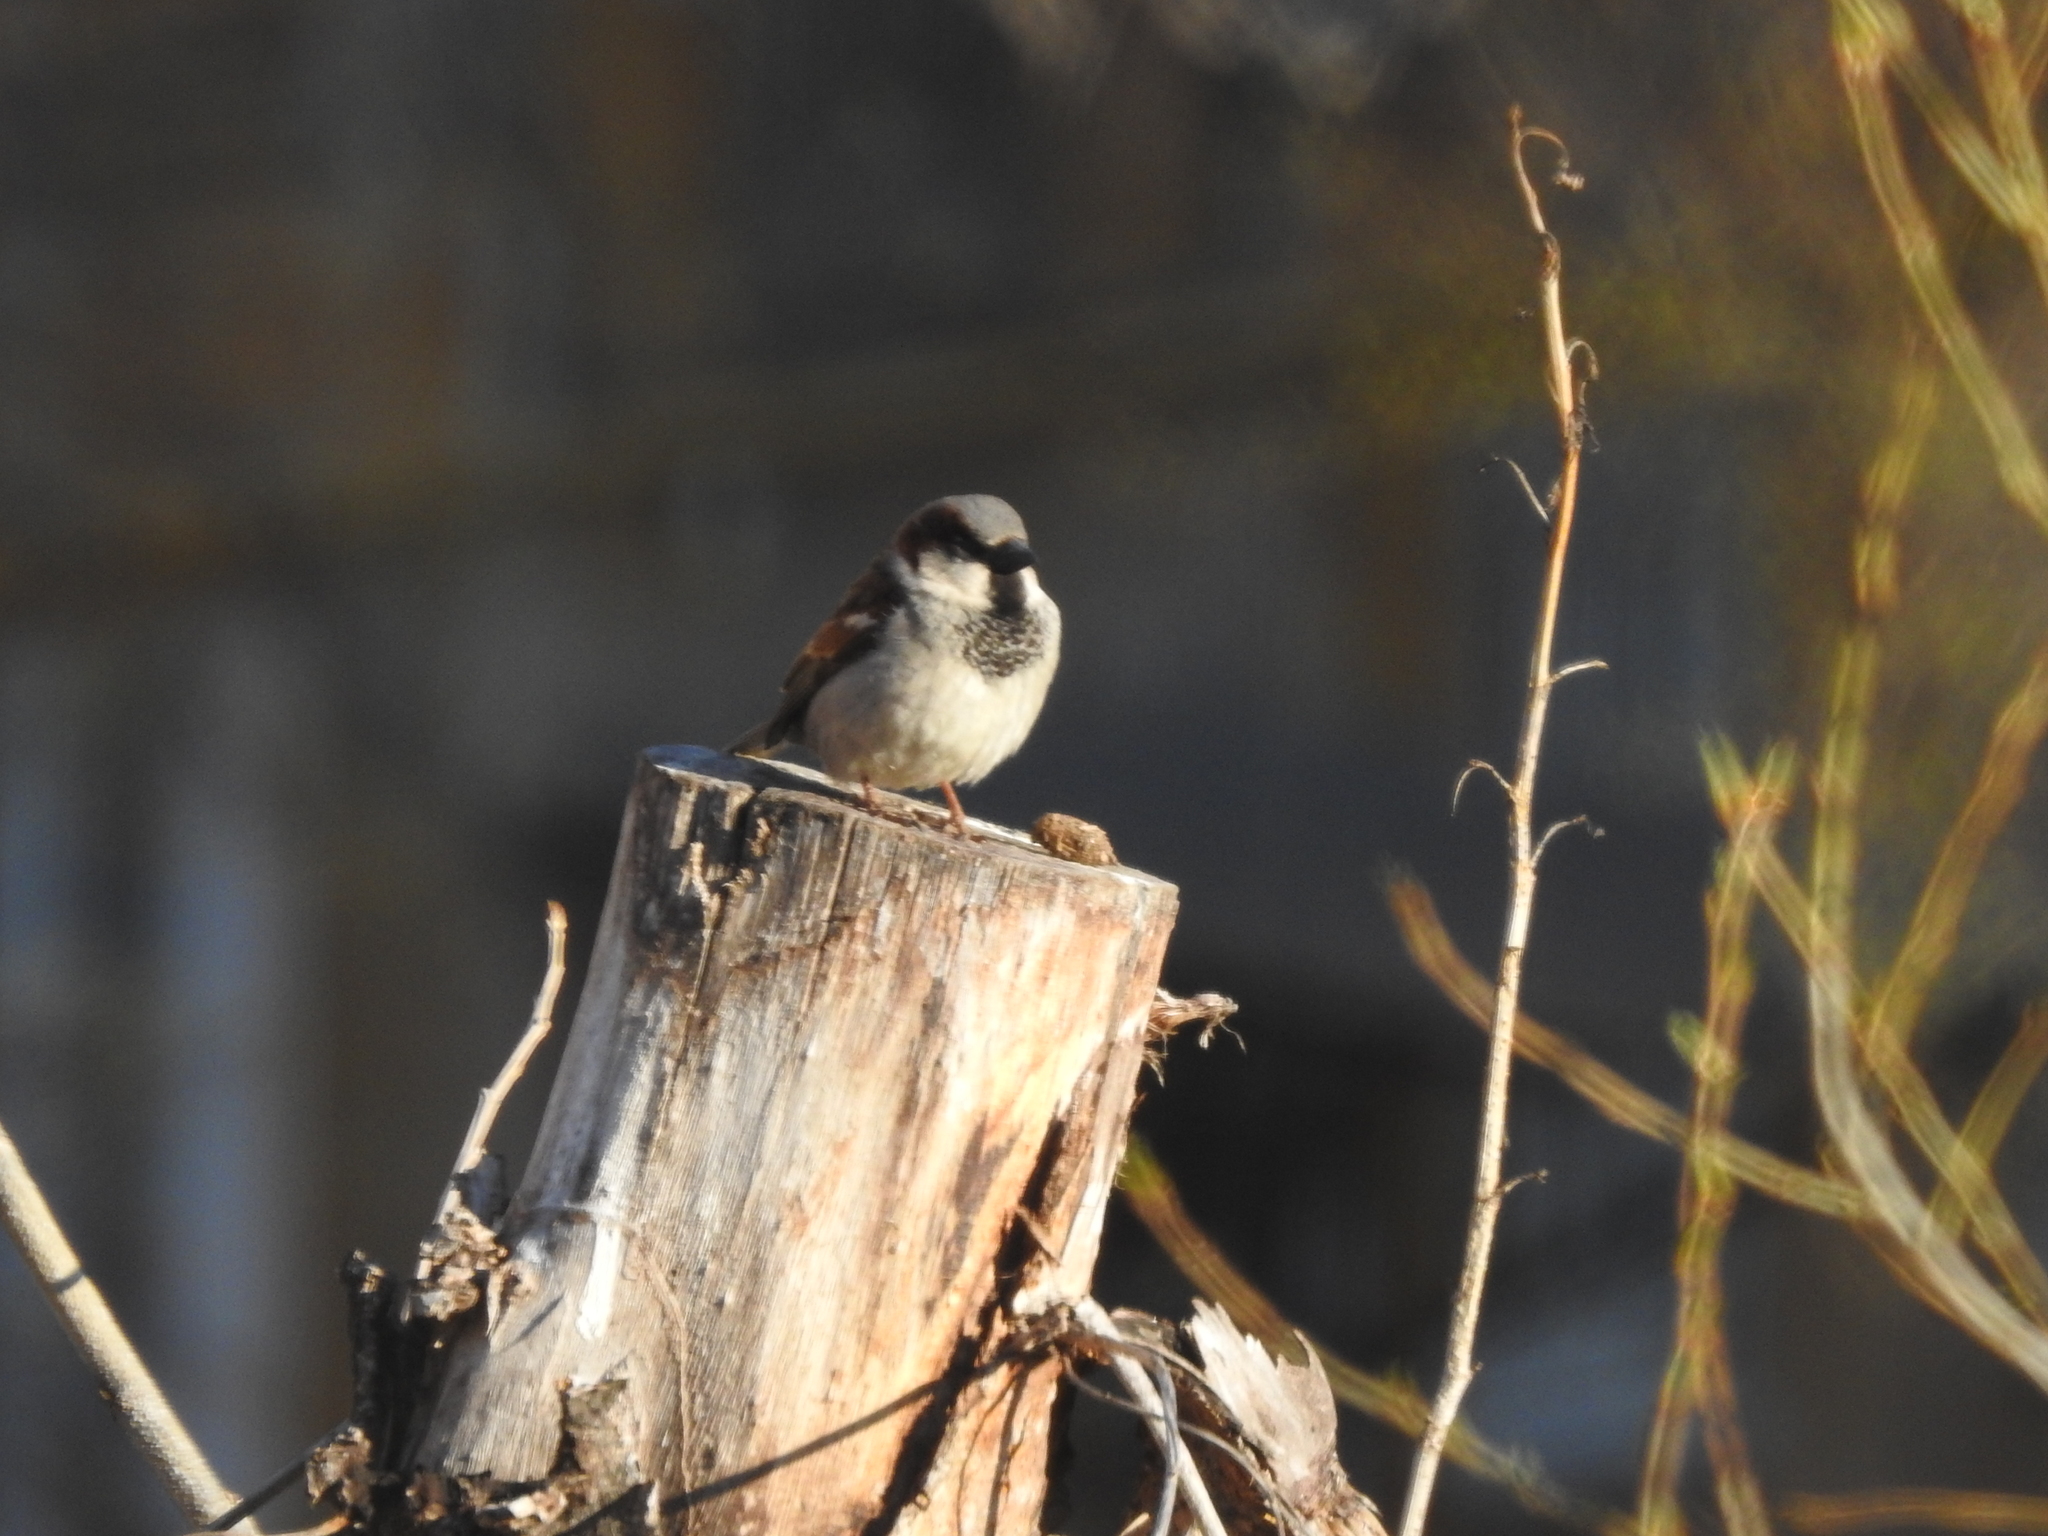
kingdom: Animalia
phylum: Chordata
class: Aves
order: Passeriformes
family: Passeridae
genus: Passer
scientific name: Passer domesticus
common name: House sparrow
